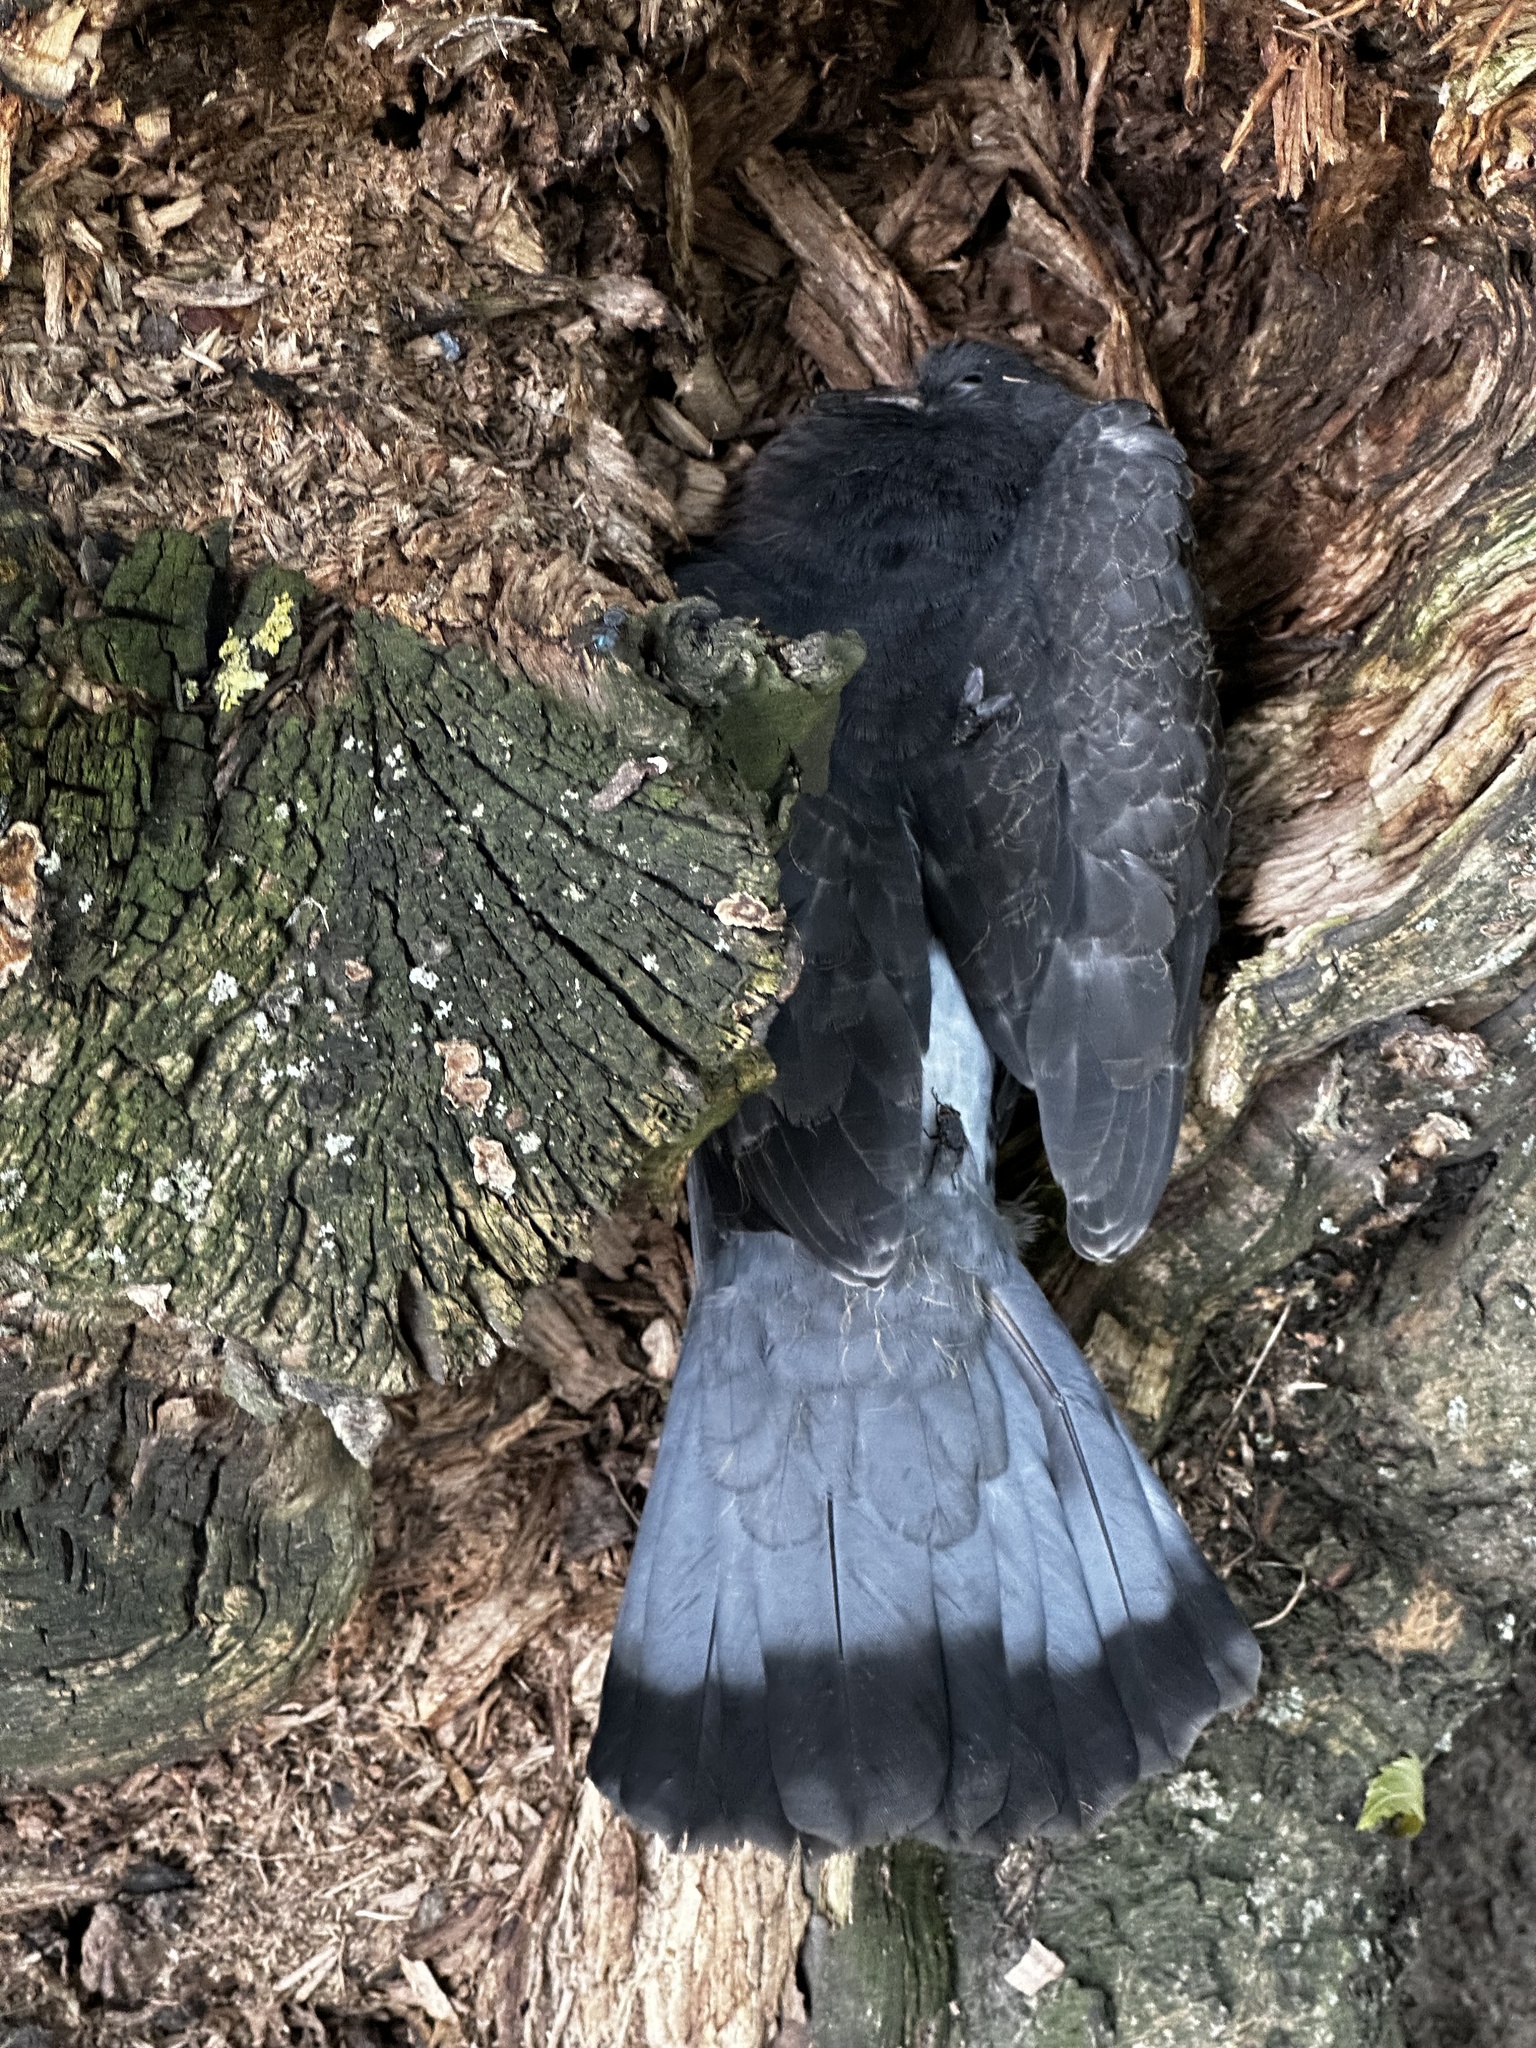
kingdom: Animalia
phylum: Chordata
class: Aves
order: Columbiformes
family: Columbidae
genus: Columba
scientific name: Columba livia
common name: Rock pigeon
